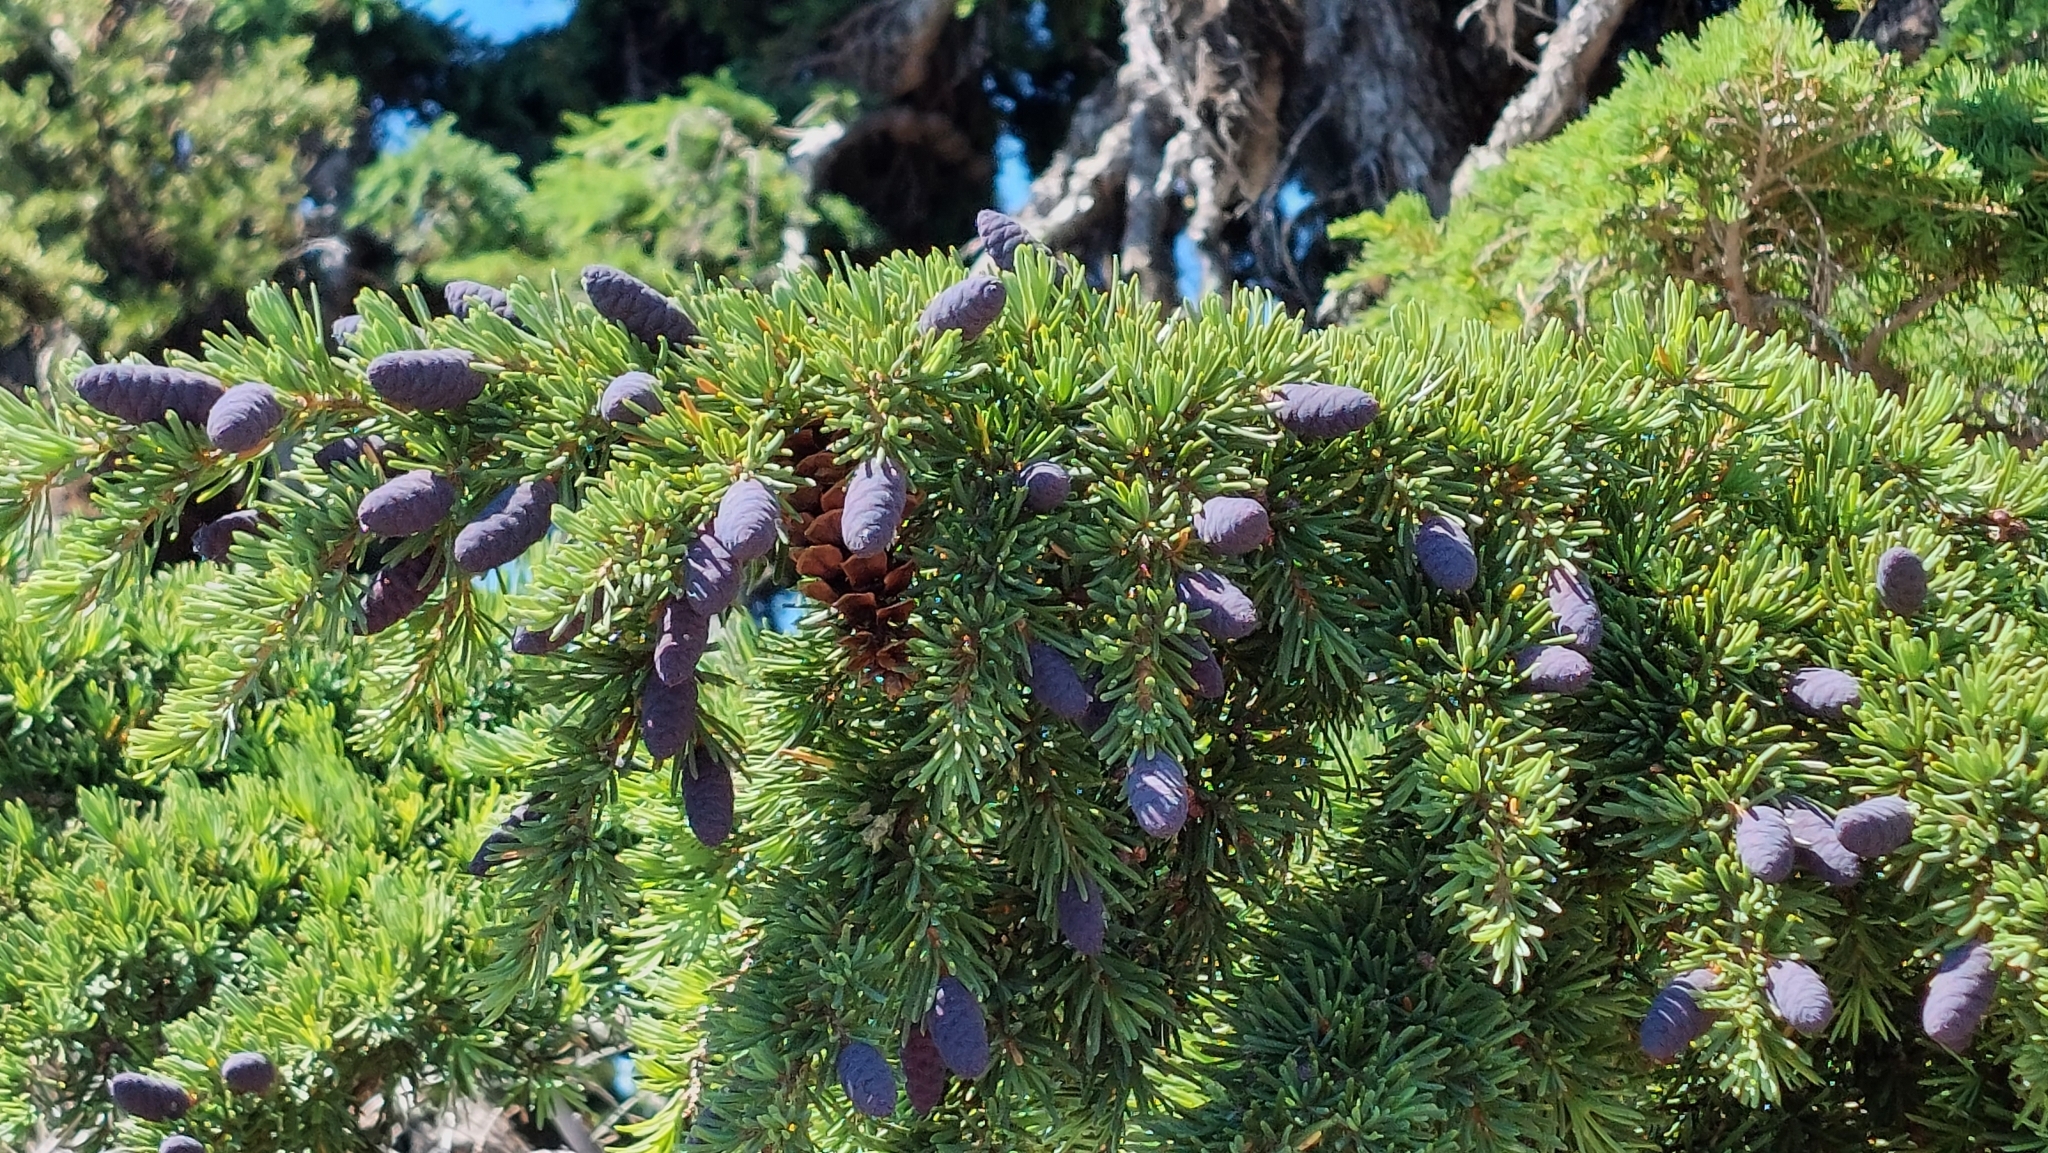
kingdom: Plantae
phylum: Tracheophyta
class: Pinopsida
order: Pinales
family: Pinaceae
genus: Tsuga
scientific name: Tsuga mertensiana
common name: Mountain hemlock
